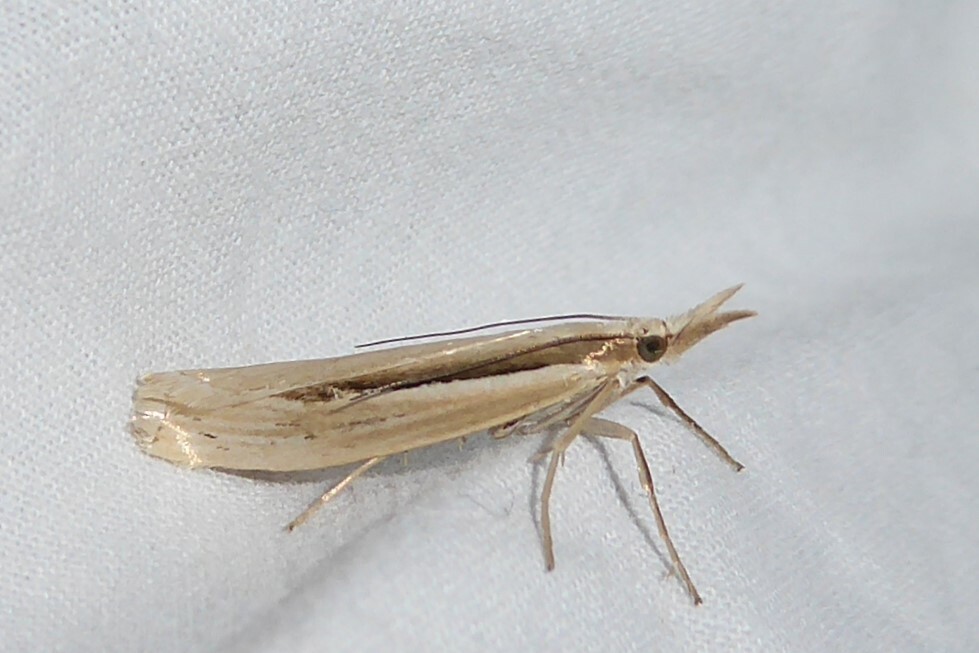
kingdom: Animalia
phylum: Arthropoda
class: Insecta
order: Lepidoptera
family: Crambidae
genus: Orocrambus
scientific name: Orocrambus ramosellus
